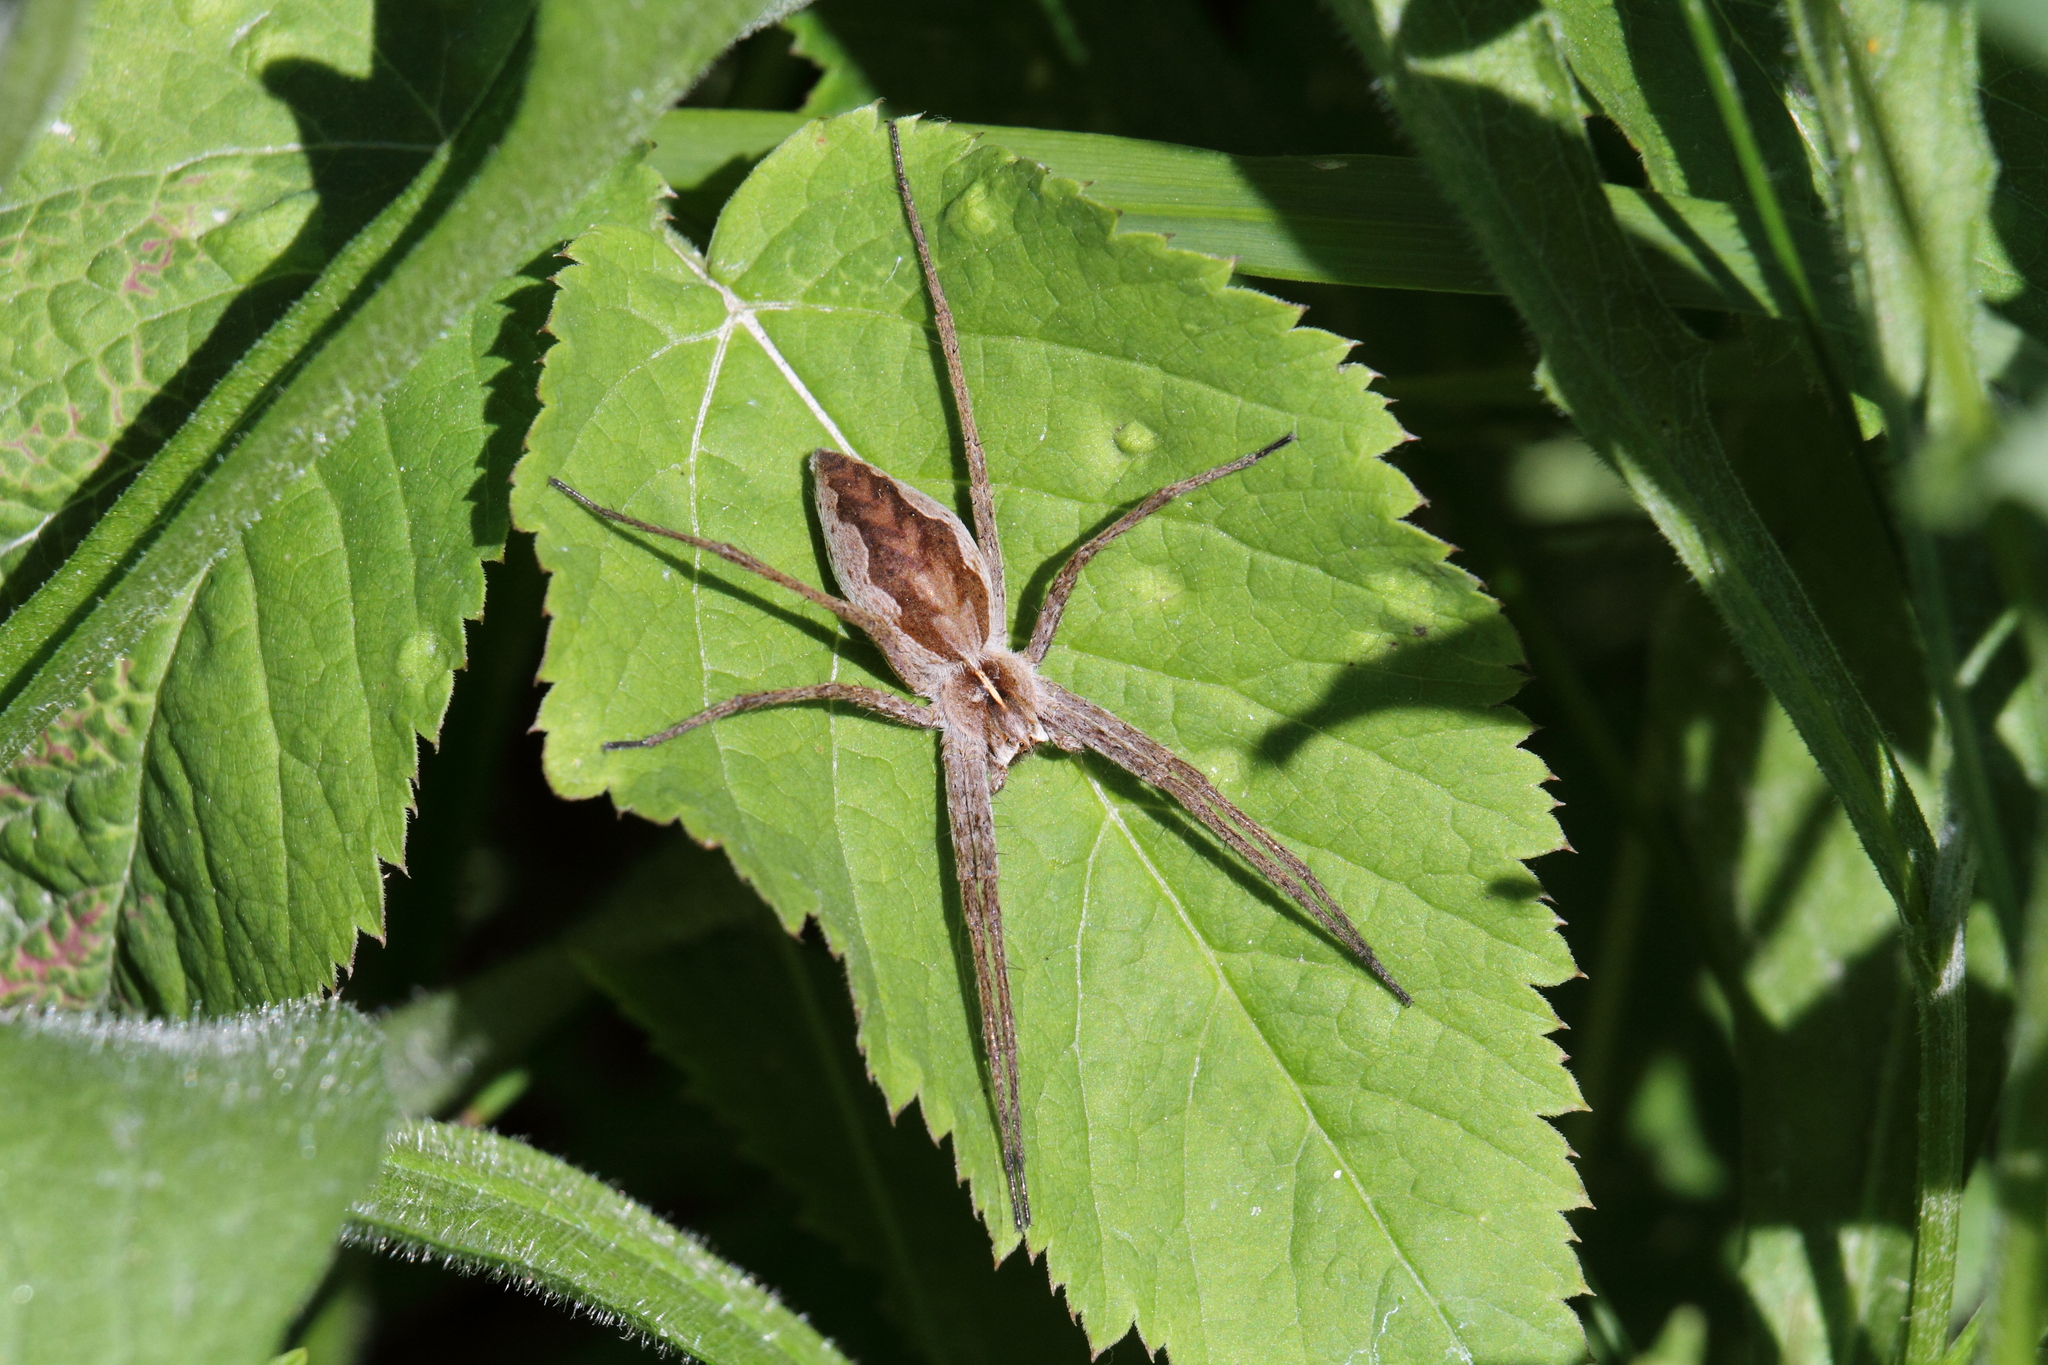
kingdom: Animalia
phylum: Arthropoda
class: Arachnida
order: Araneae
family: Pisauridae
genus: Pisaura
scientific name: Pisaura mirabilis
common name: Tent spider
